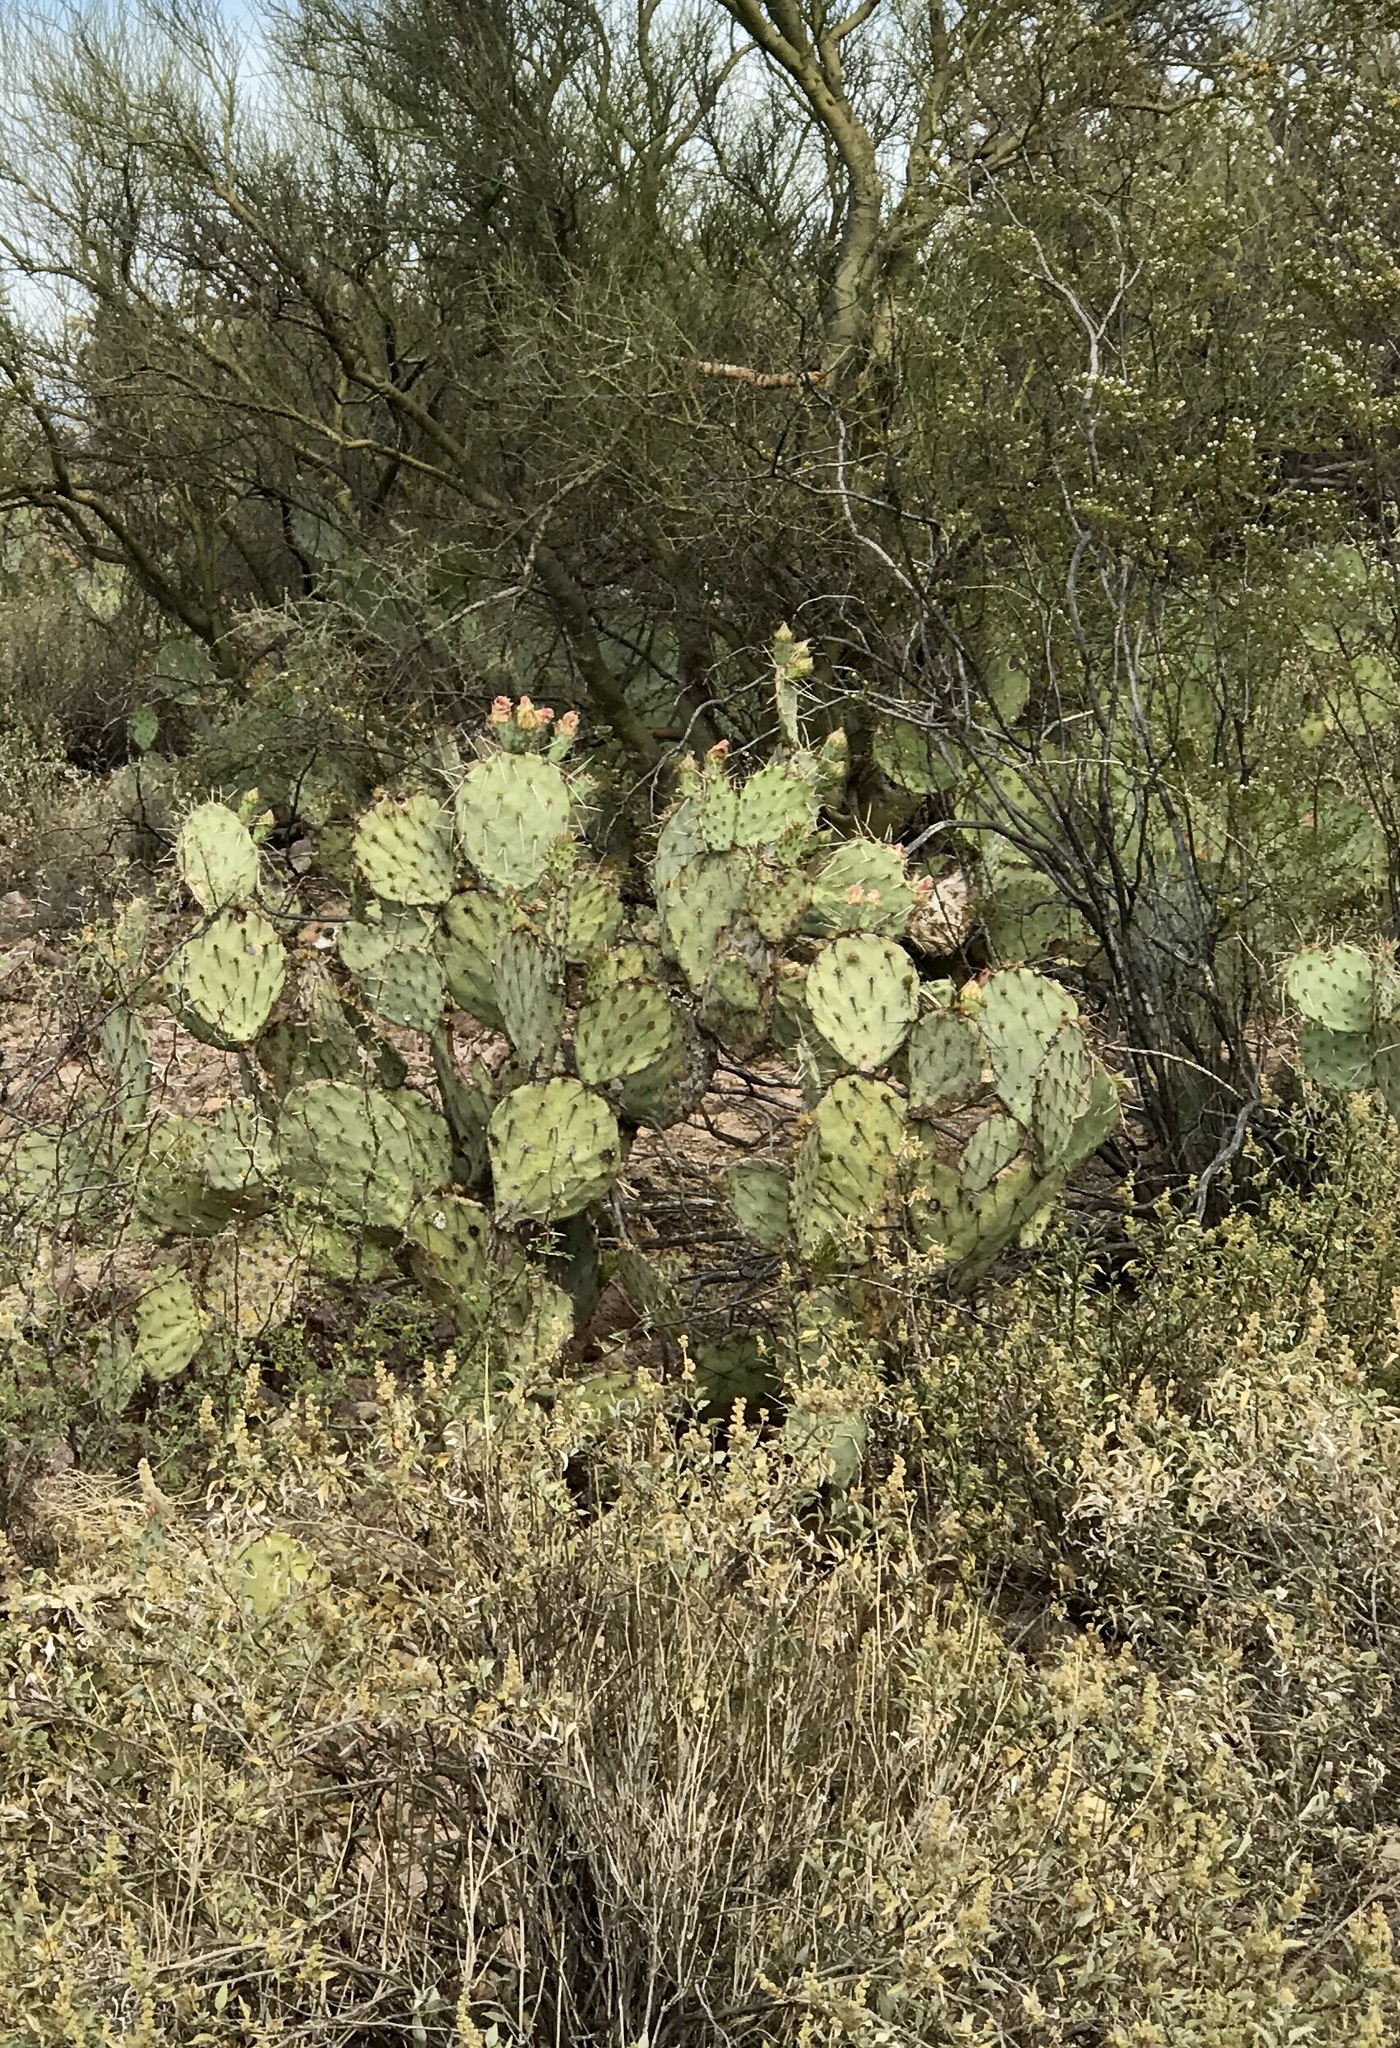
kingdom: Plantae
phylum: Tracheophyta
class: Magnoliopsida
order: Caryophyllales
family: Cactaceae
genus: Opuntia
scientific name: Opuntia engelmannii
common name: Cactus-apple
